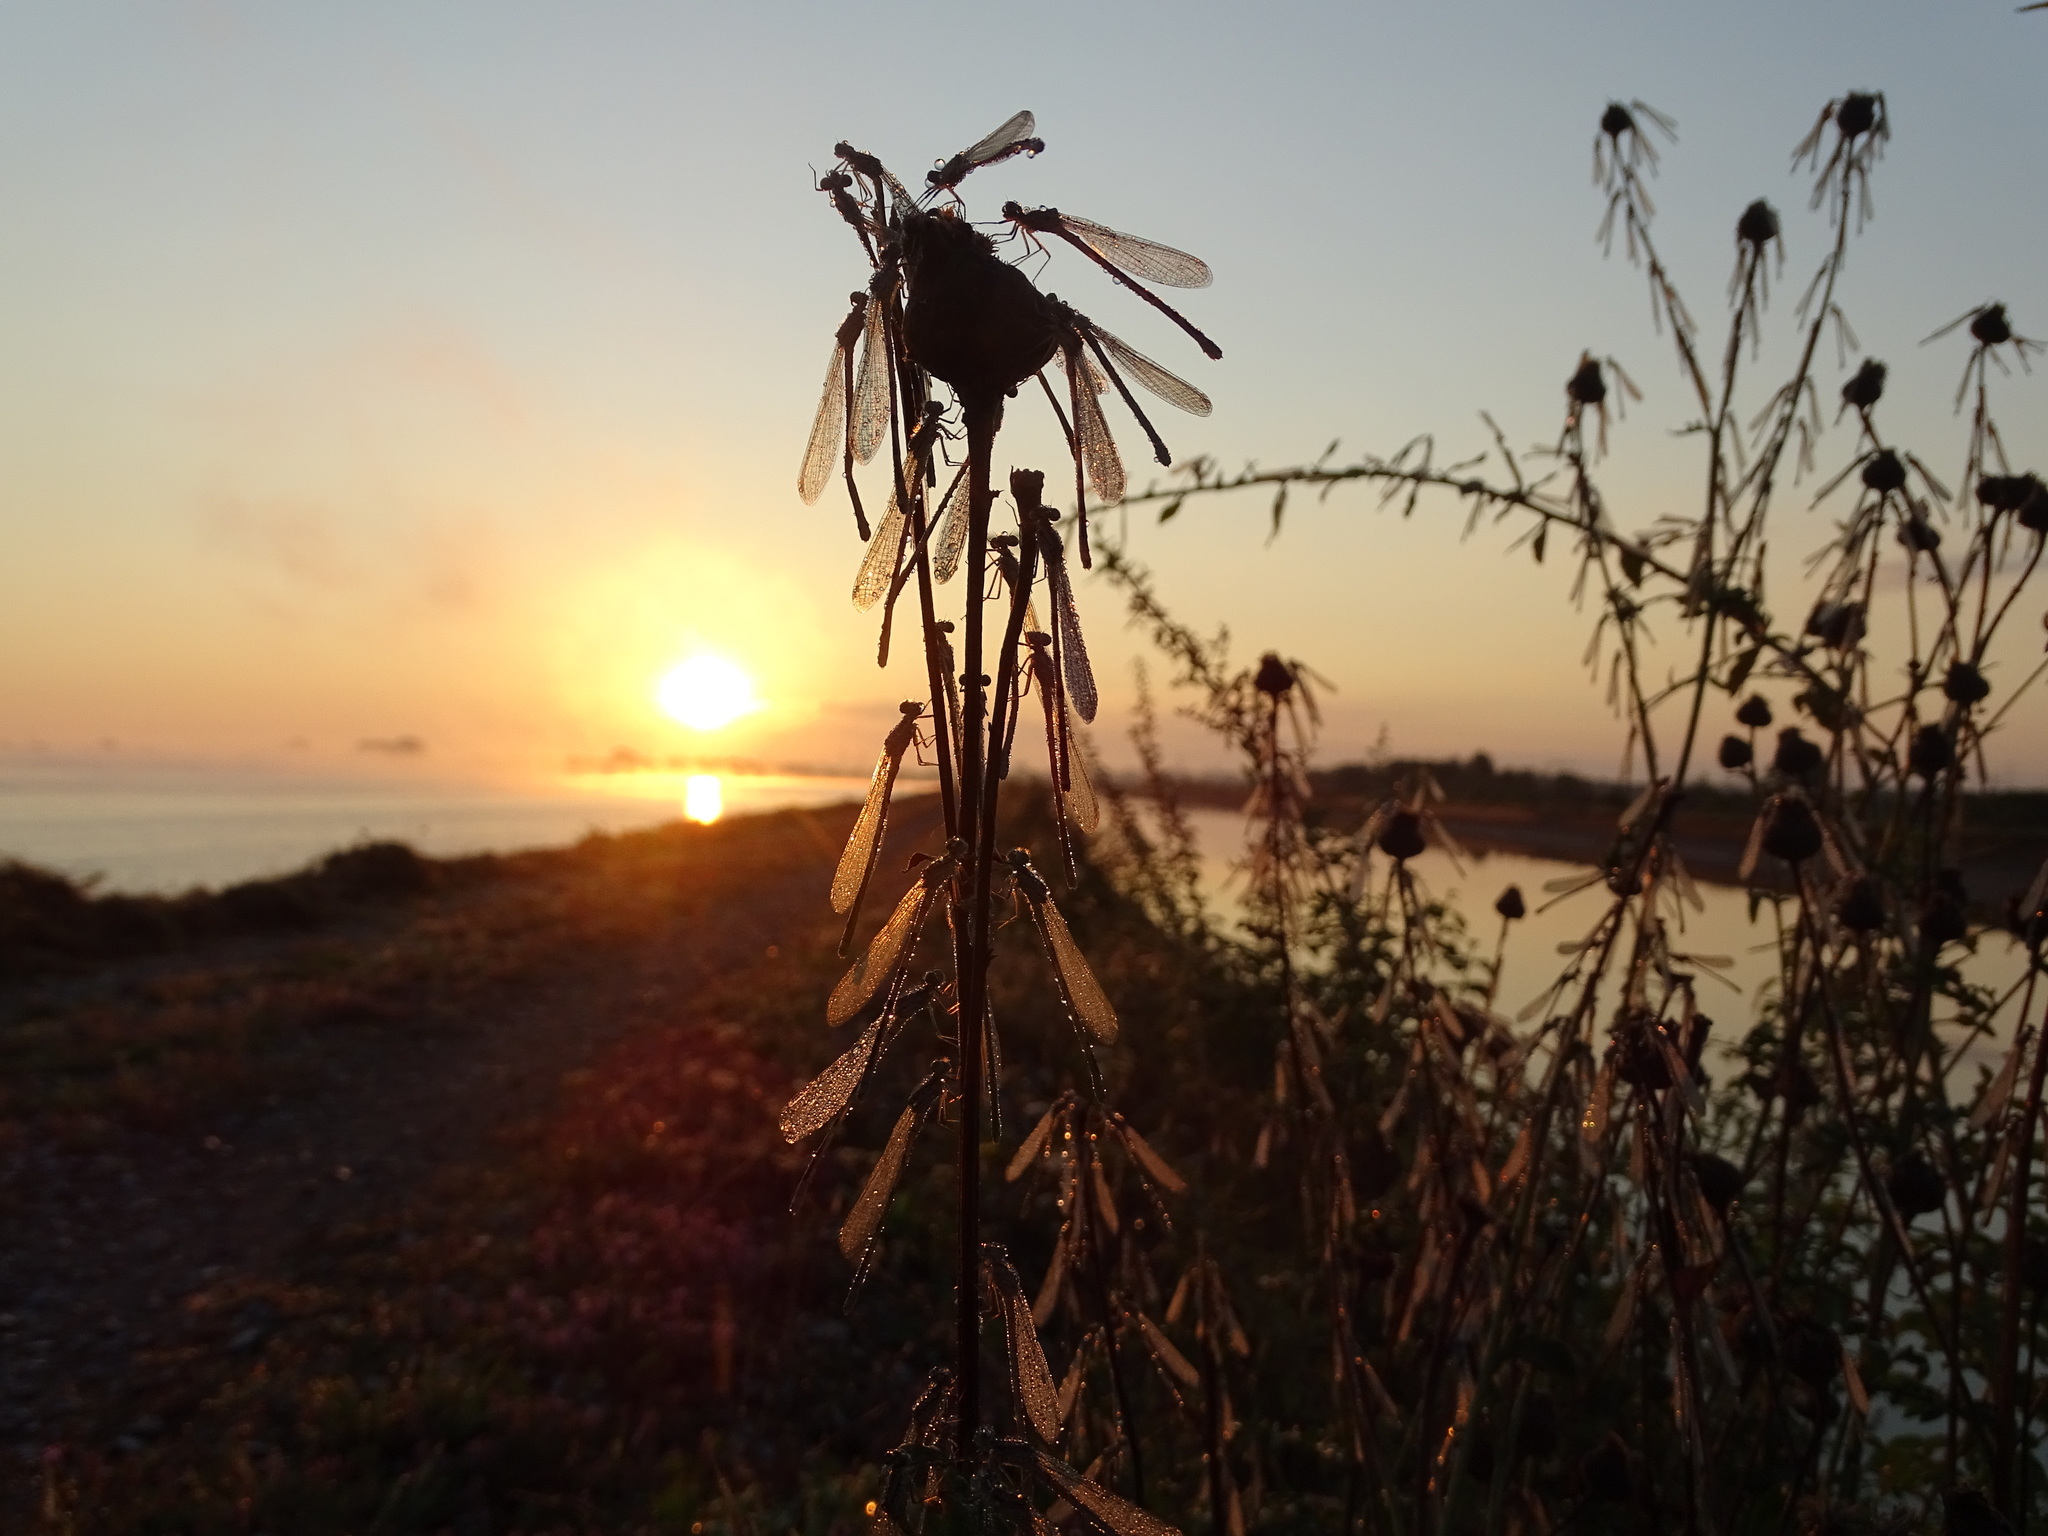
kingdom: Animalia
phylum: Arthropoda
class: Insecta
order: Odonata
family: Coenagrionidae
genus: Enallagma
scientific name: Enallagma cyathigerum
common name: Common blue damselfly
